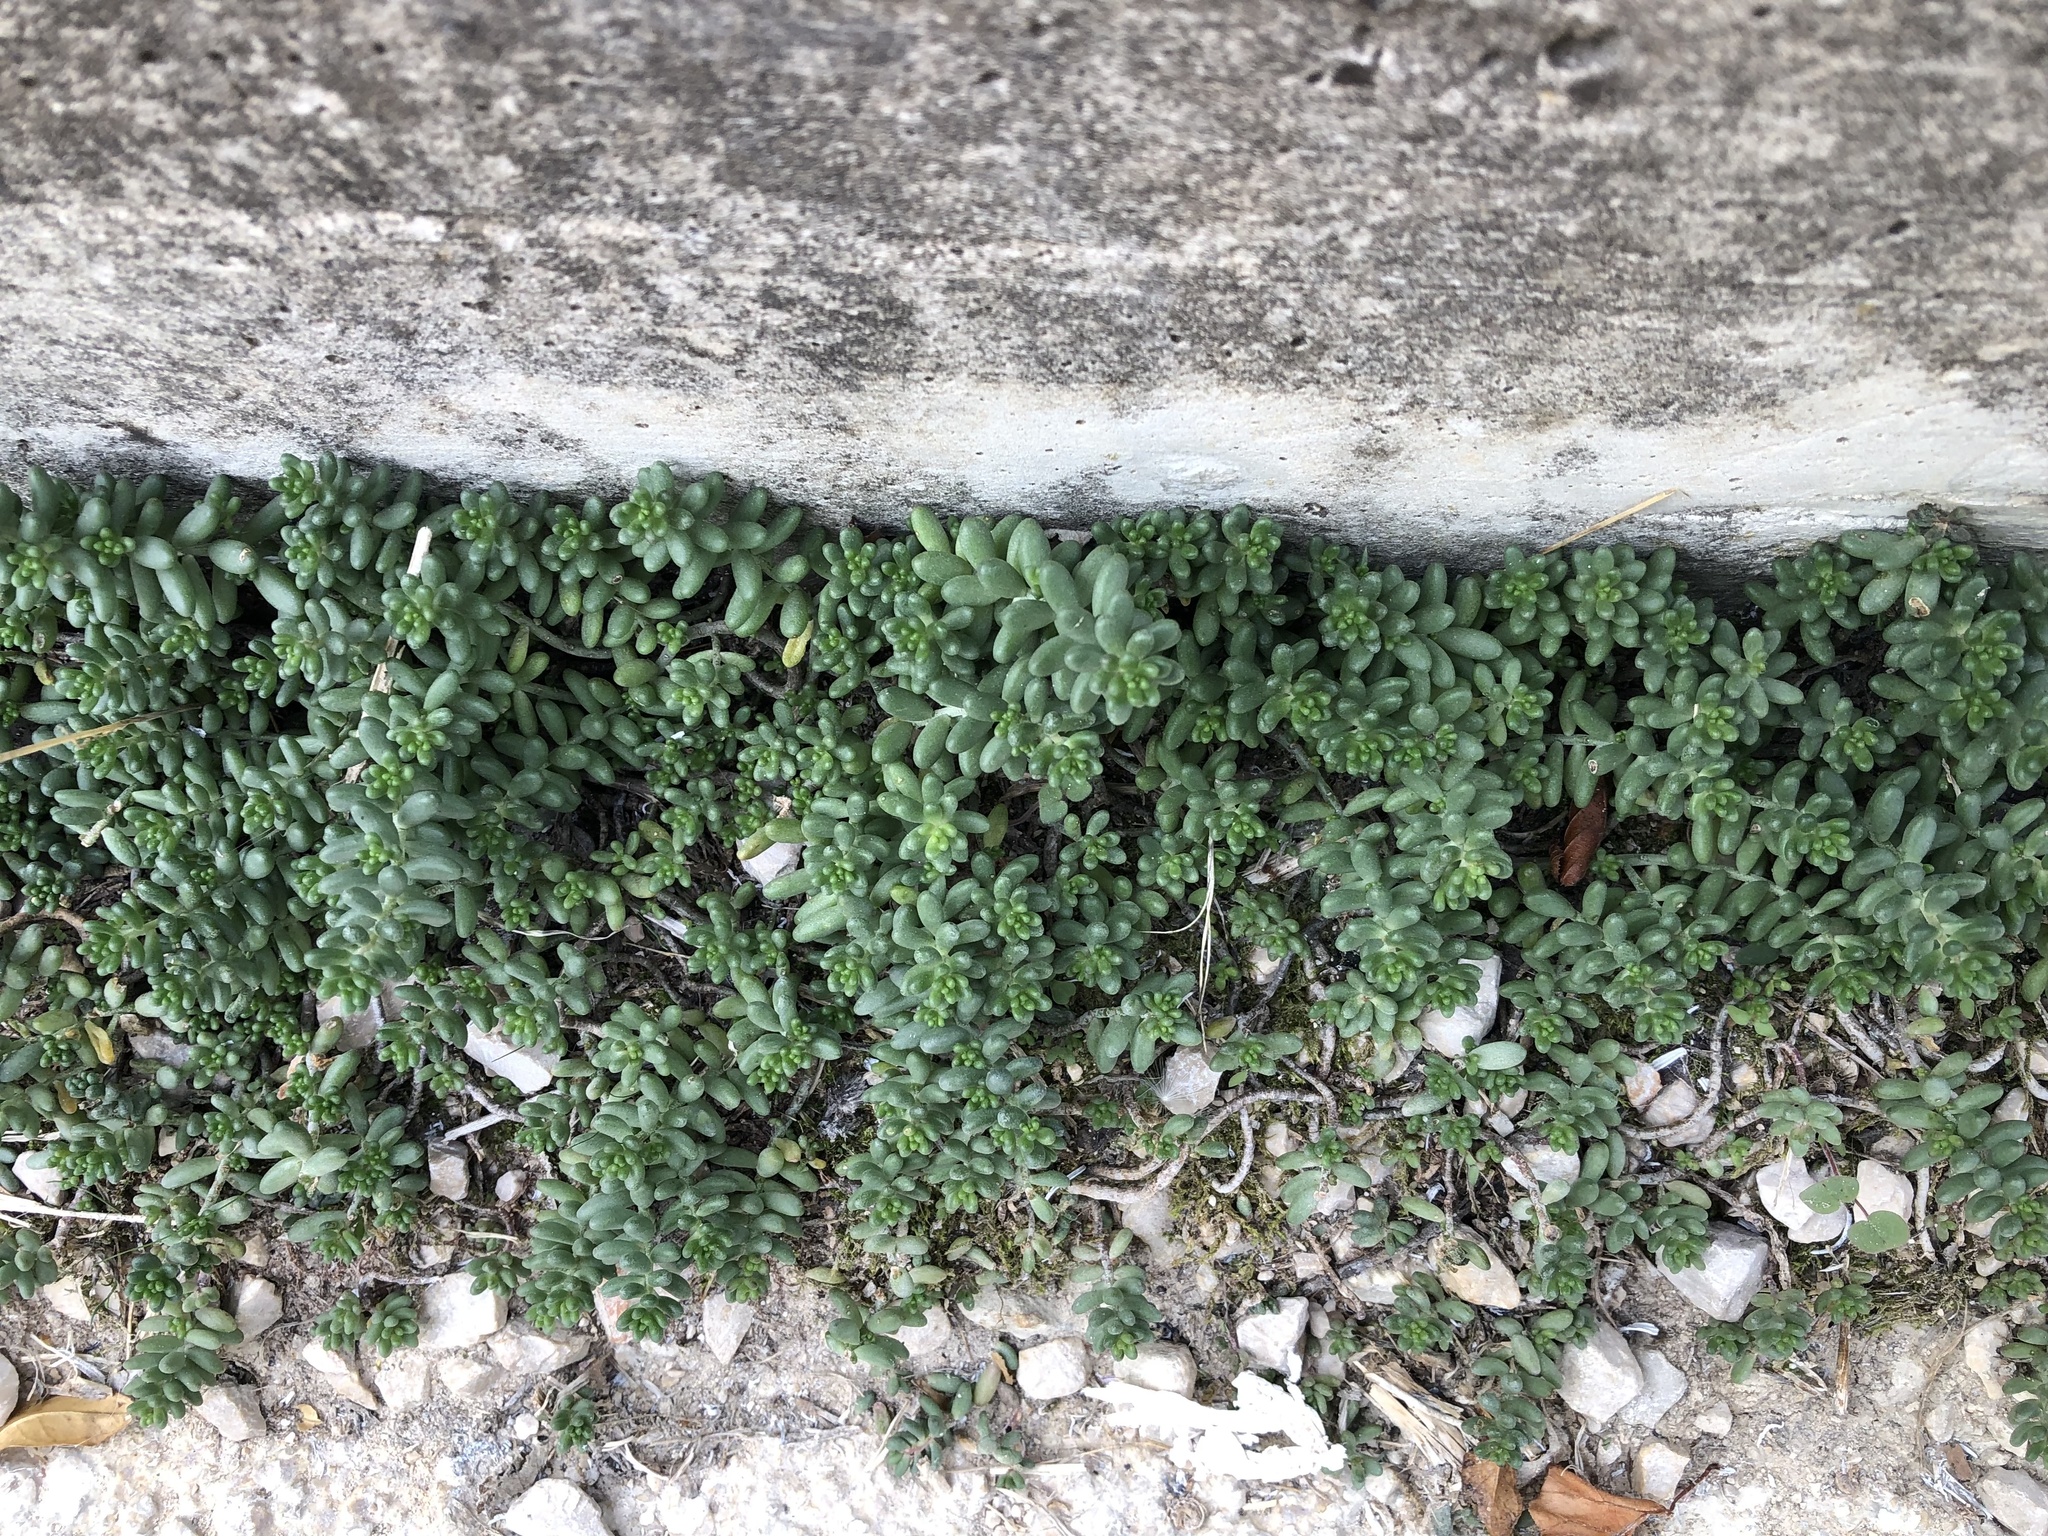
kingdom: Plantae
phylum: Tracheophyta
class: Magnoliopsida
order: Saxifragales
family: Crassulaceae
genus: Sedum
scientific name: Sedum album
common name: White stonecrop
